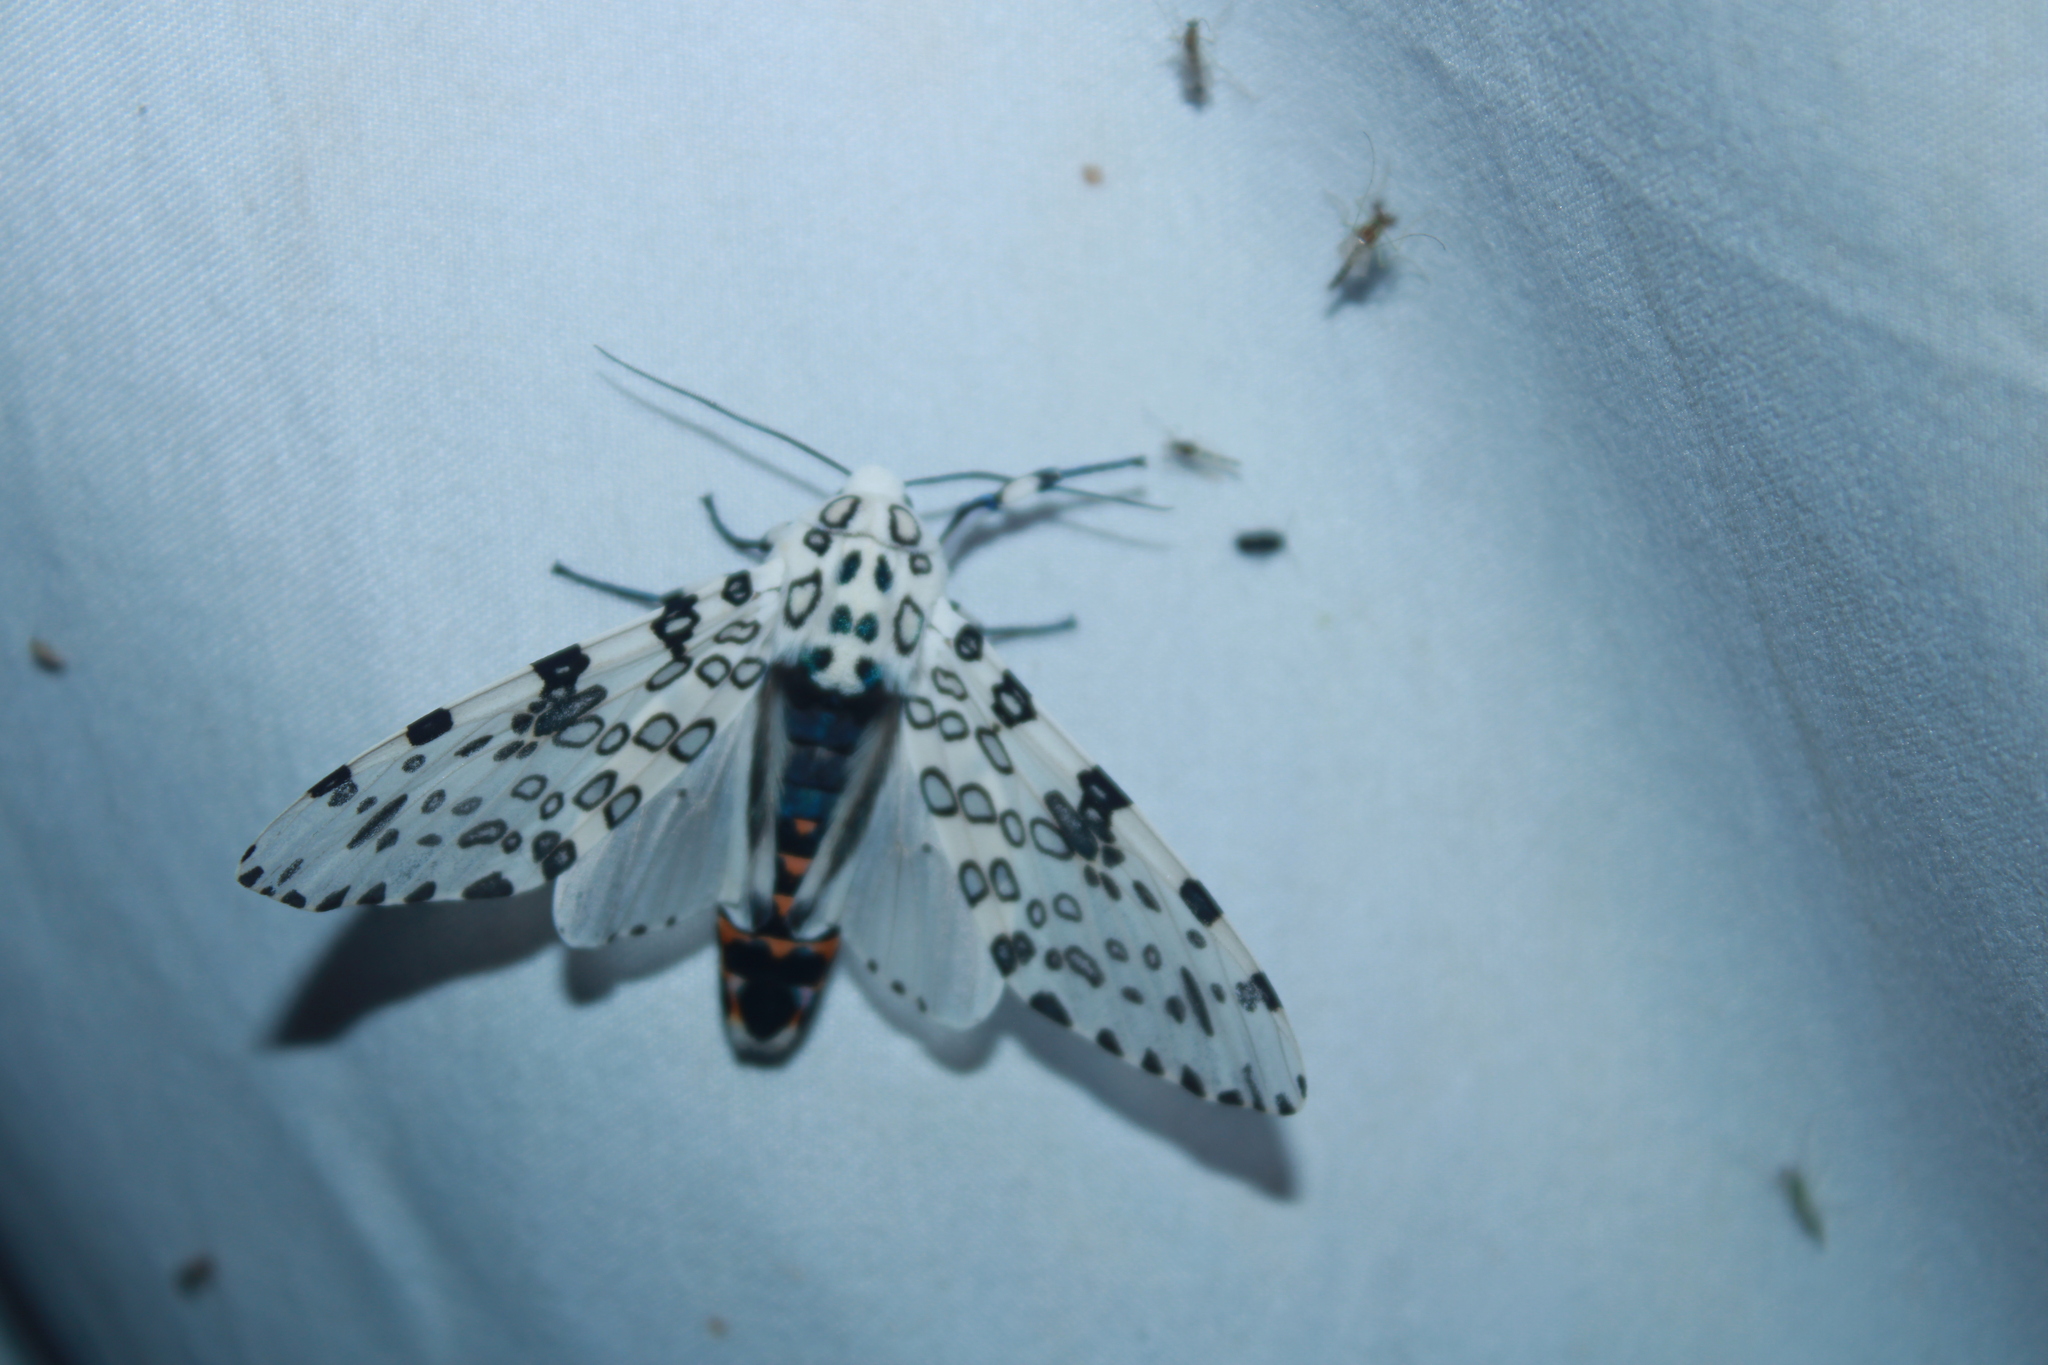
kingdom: Animalia
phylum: Arthropoda
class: Insecta
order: Lepidoptera
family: Erebidae
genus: Hypercompe
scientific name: Hypercompe scribonia
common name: Giant leopard moth
